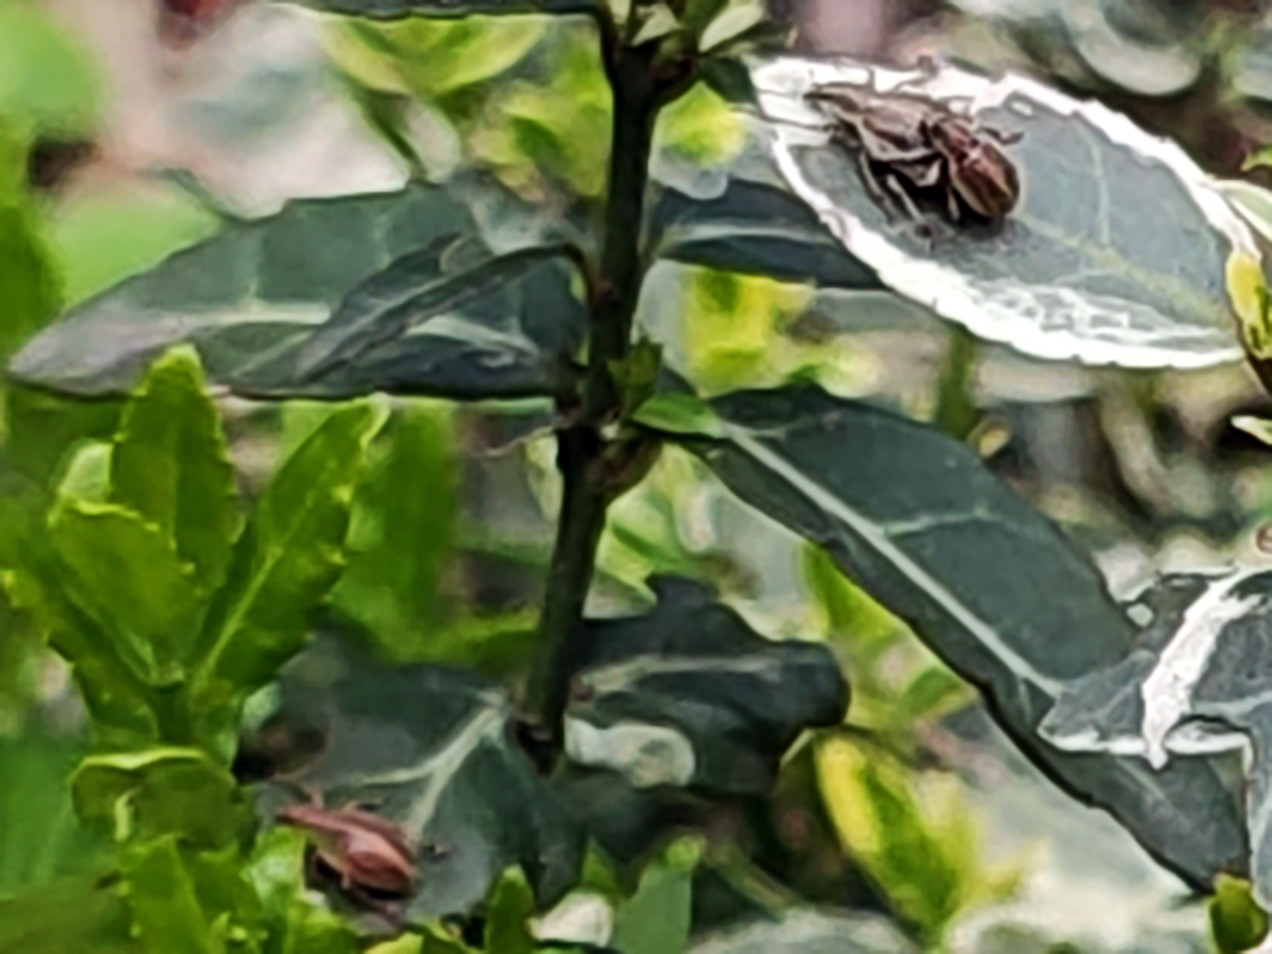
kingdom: Animalia
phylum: Arthropoda
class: Insecta
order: Coleoptera
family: Curculionidae
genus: Sciaphobus
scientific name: Sciaphobus squalidus
